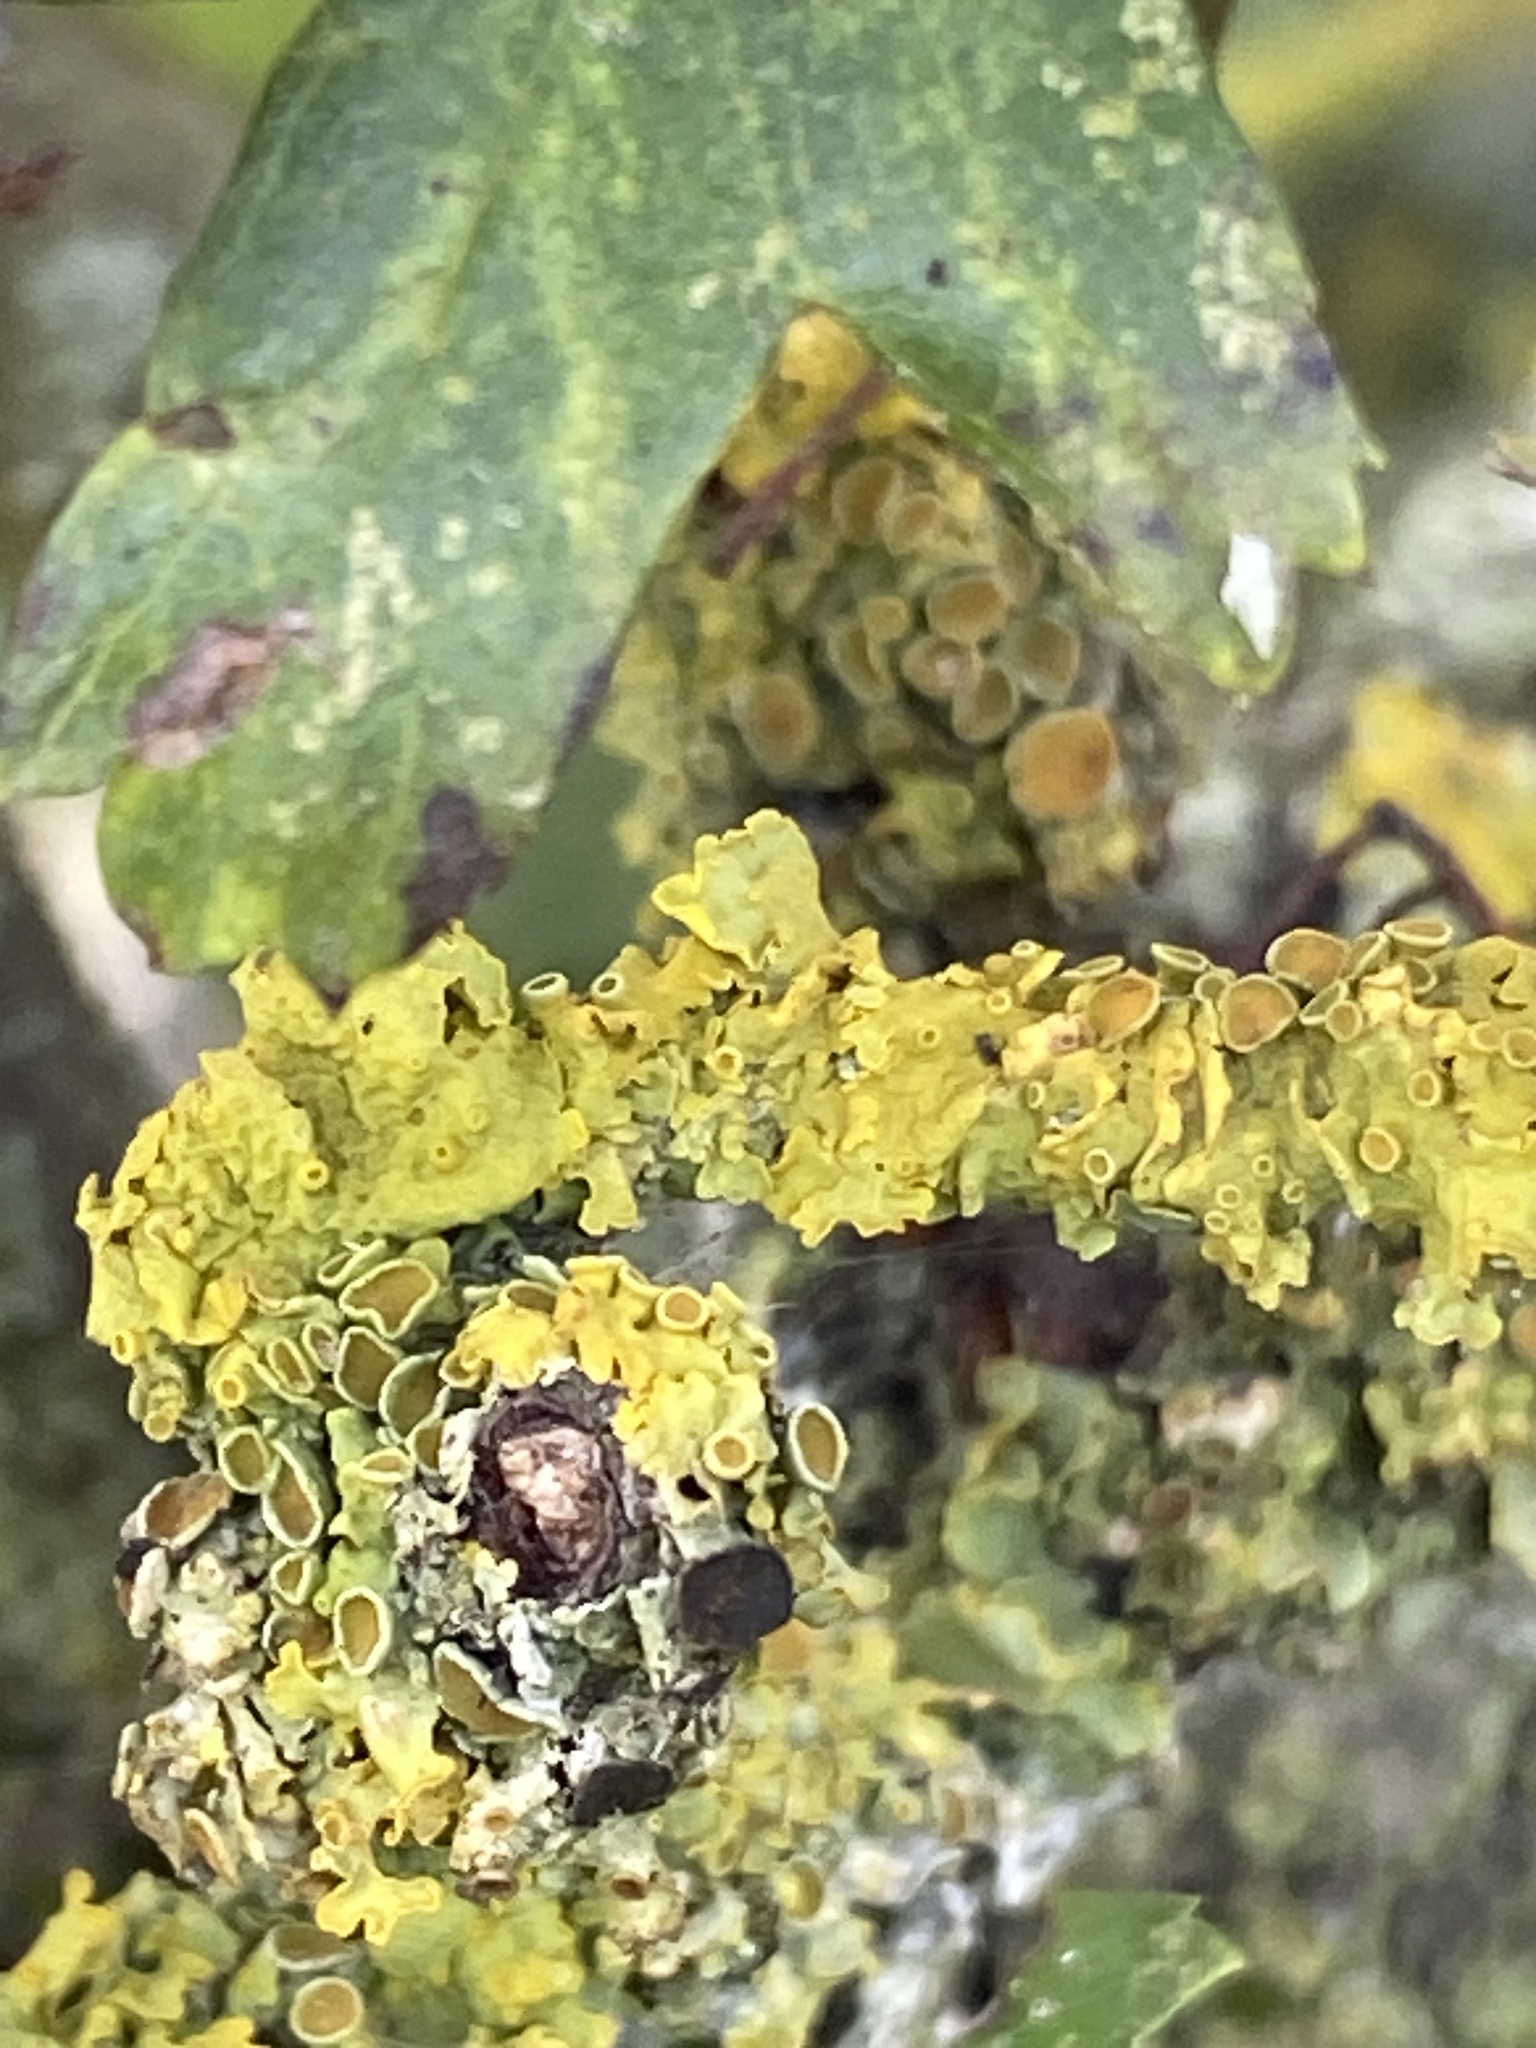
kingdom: Fungi
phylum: Ascomycota
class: Lecanoromycetes
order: Teloschistales
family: Teloschistaceae
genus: Xanthoria
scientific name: Xanthoria parietina
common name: Common orange lichen
